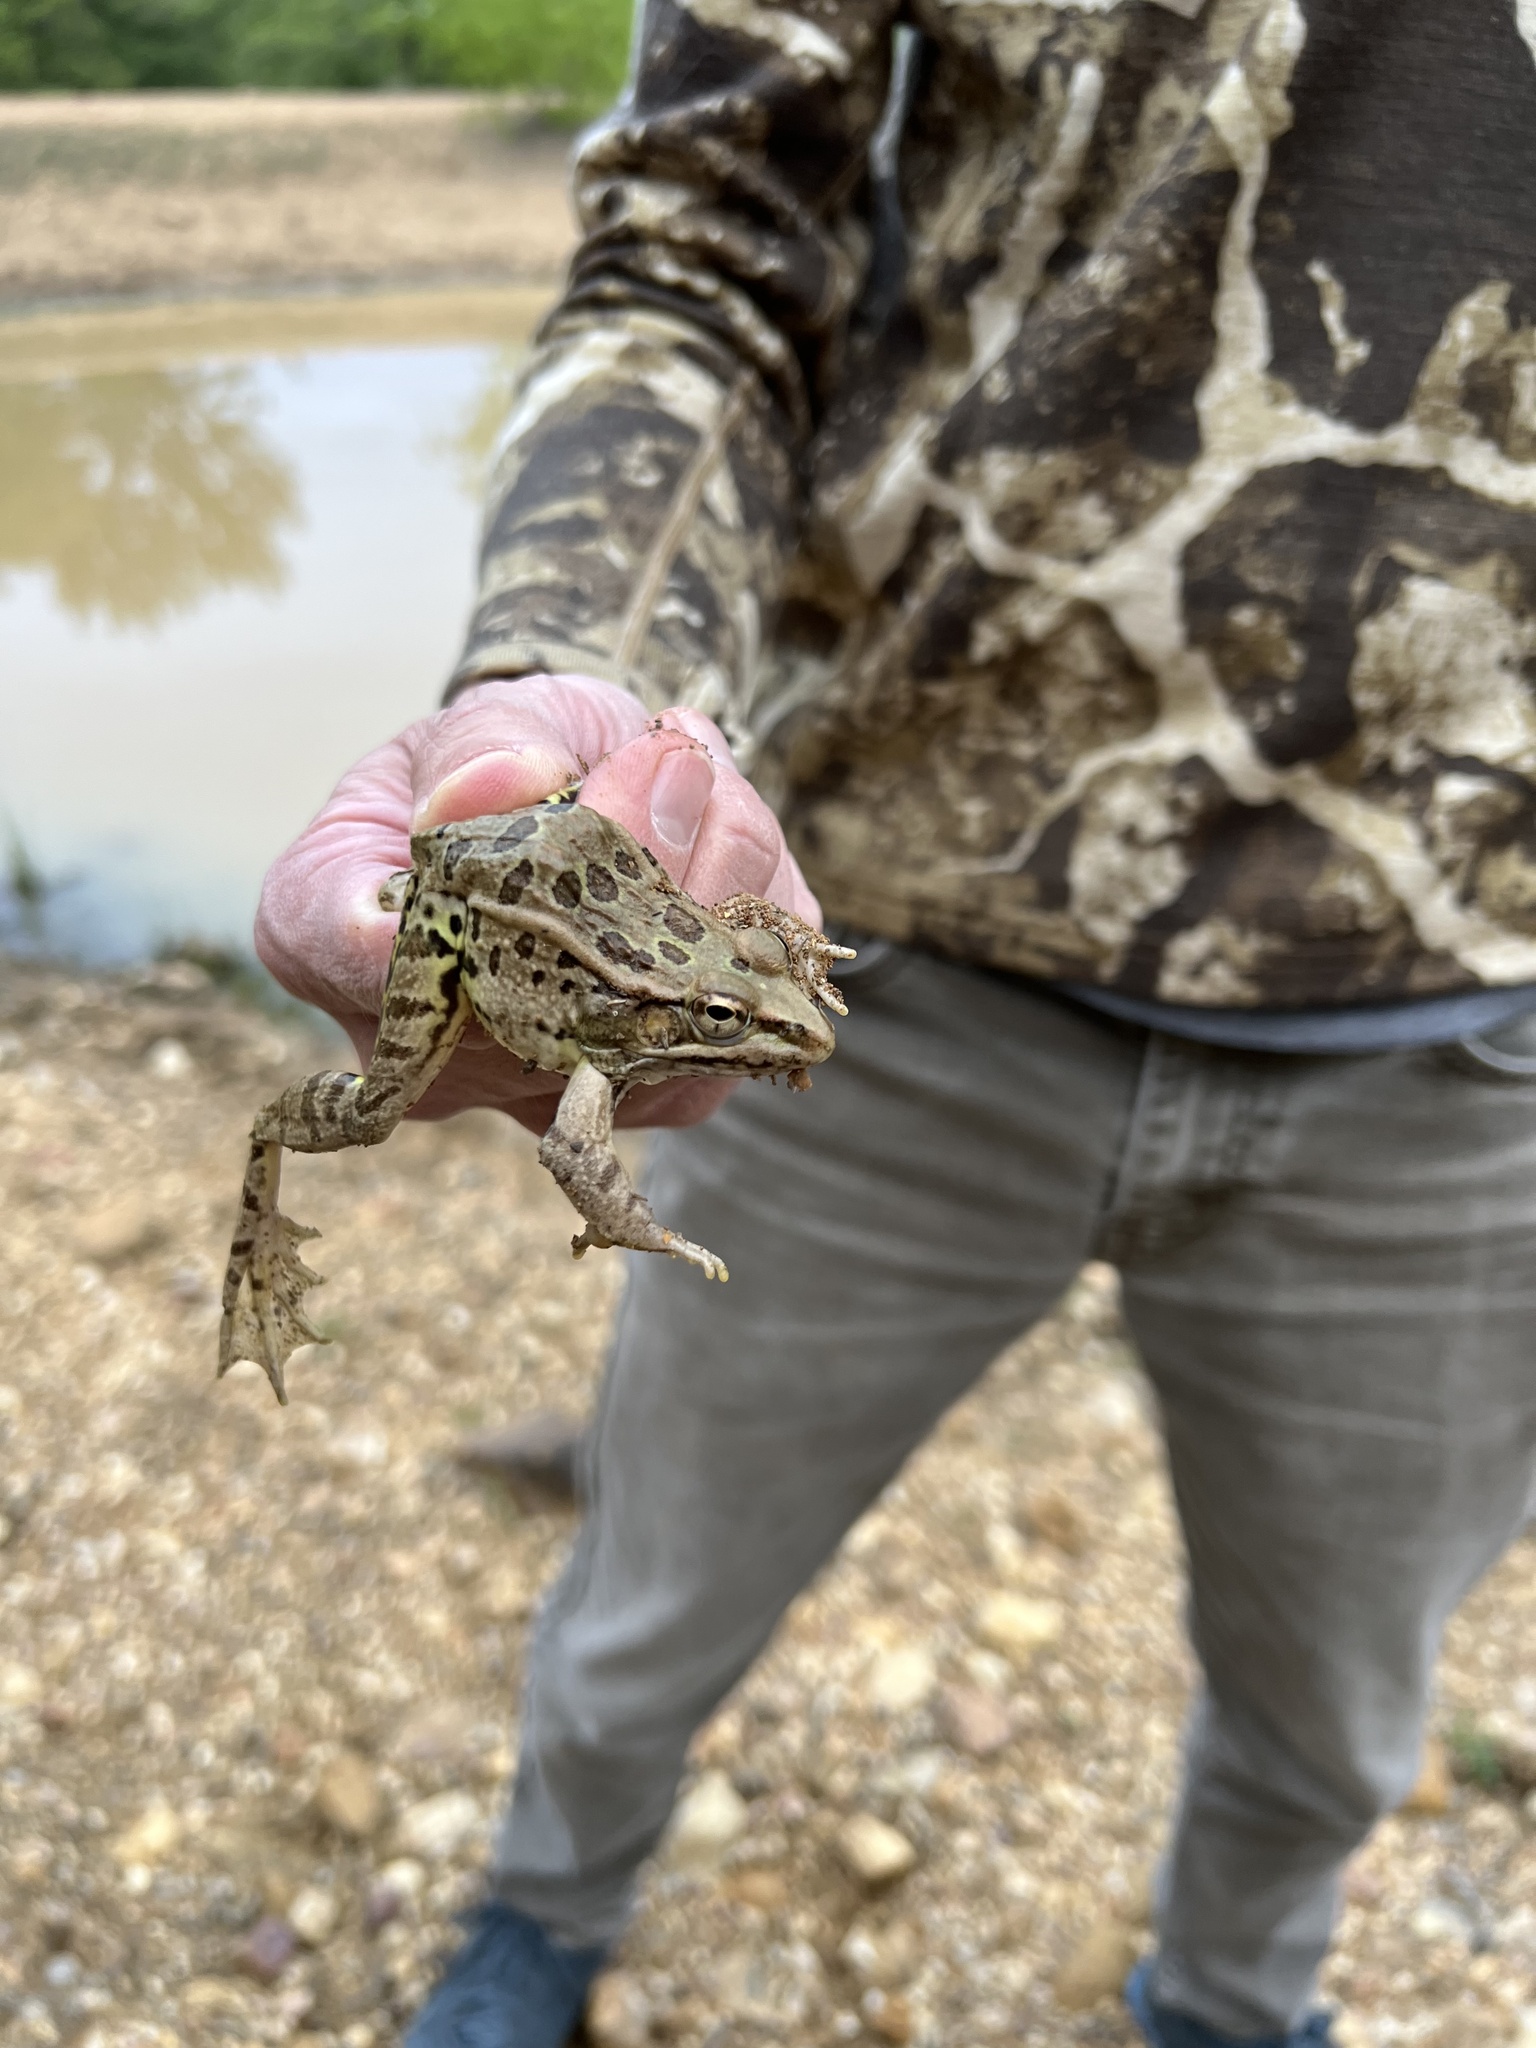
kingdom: Animalia
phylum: Chordata
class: Amphibia
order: Anura
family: Ranidae
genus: Lithobates
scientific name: Lithobates berlandieri
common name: Rio grande leopard frog
